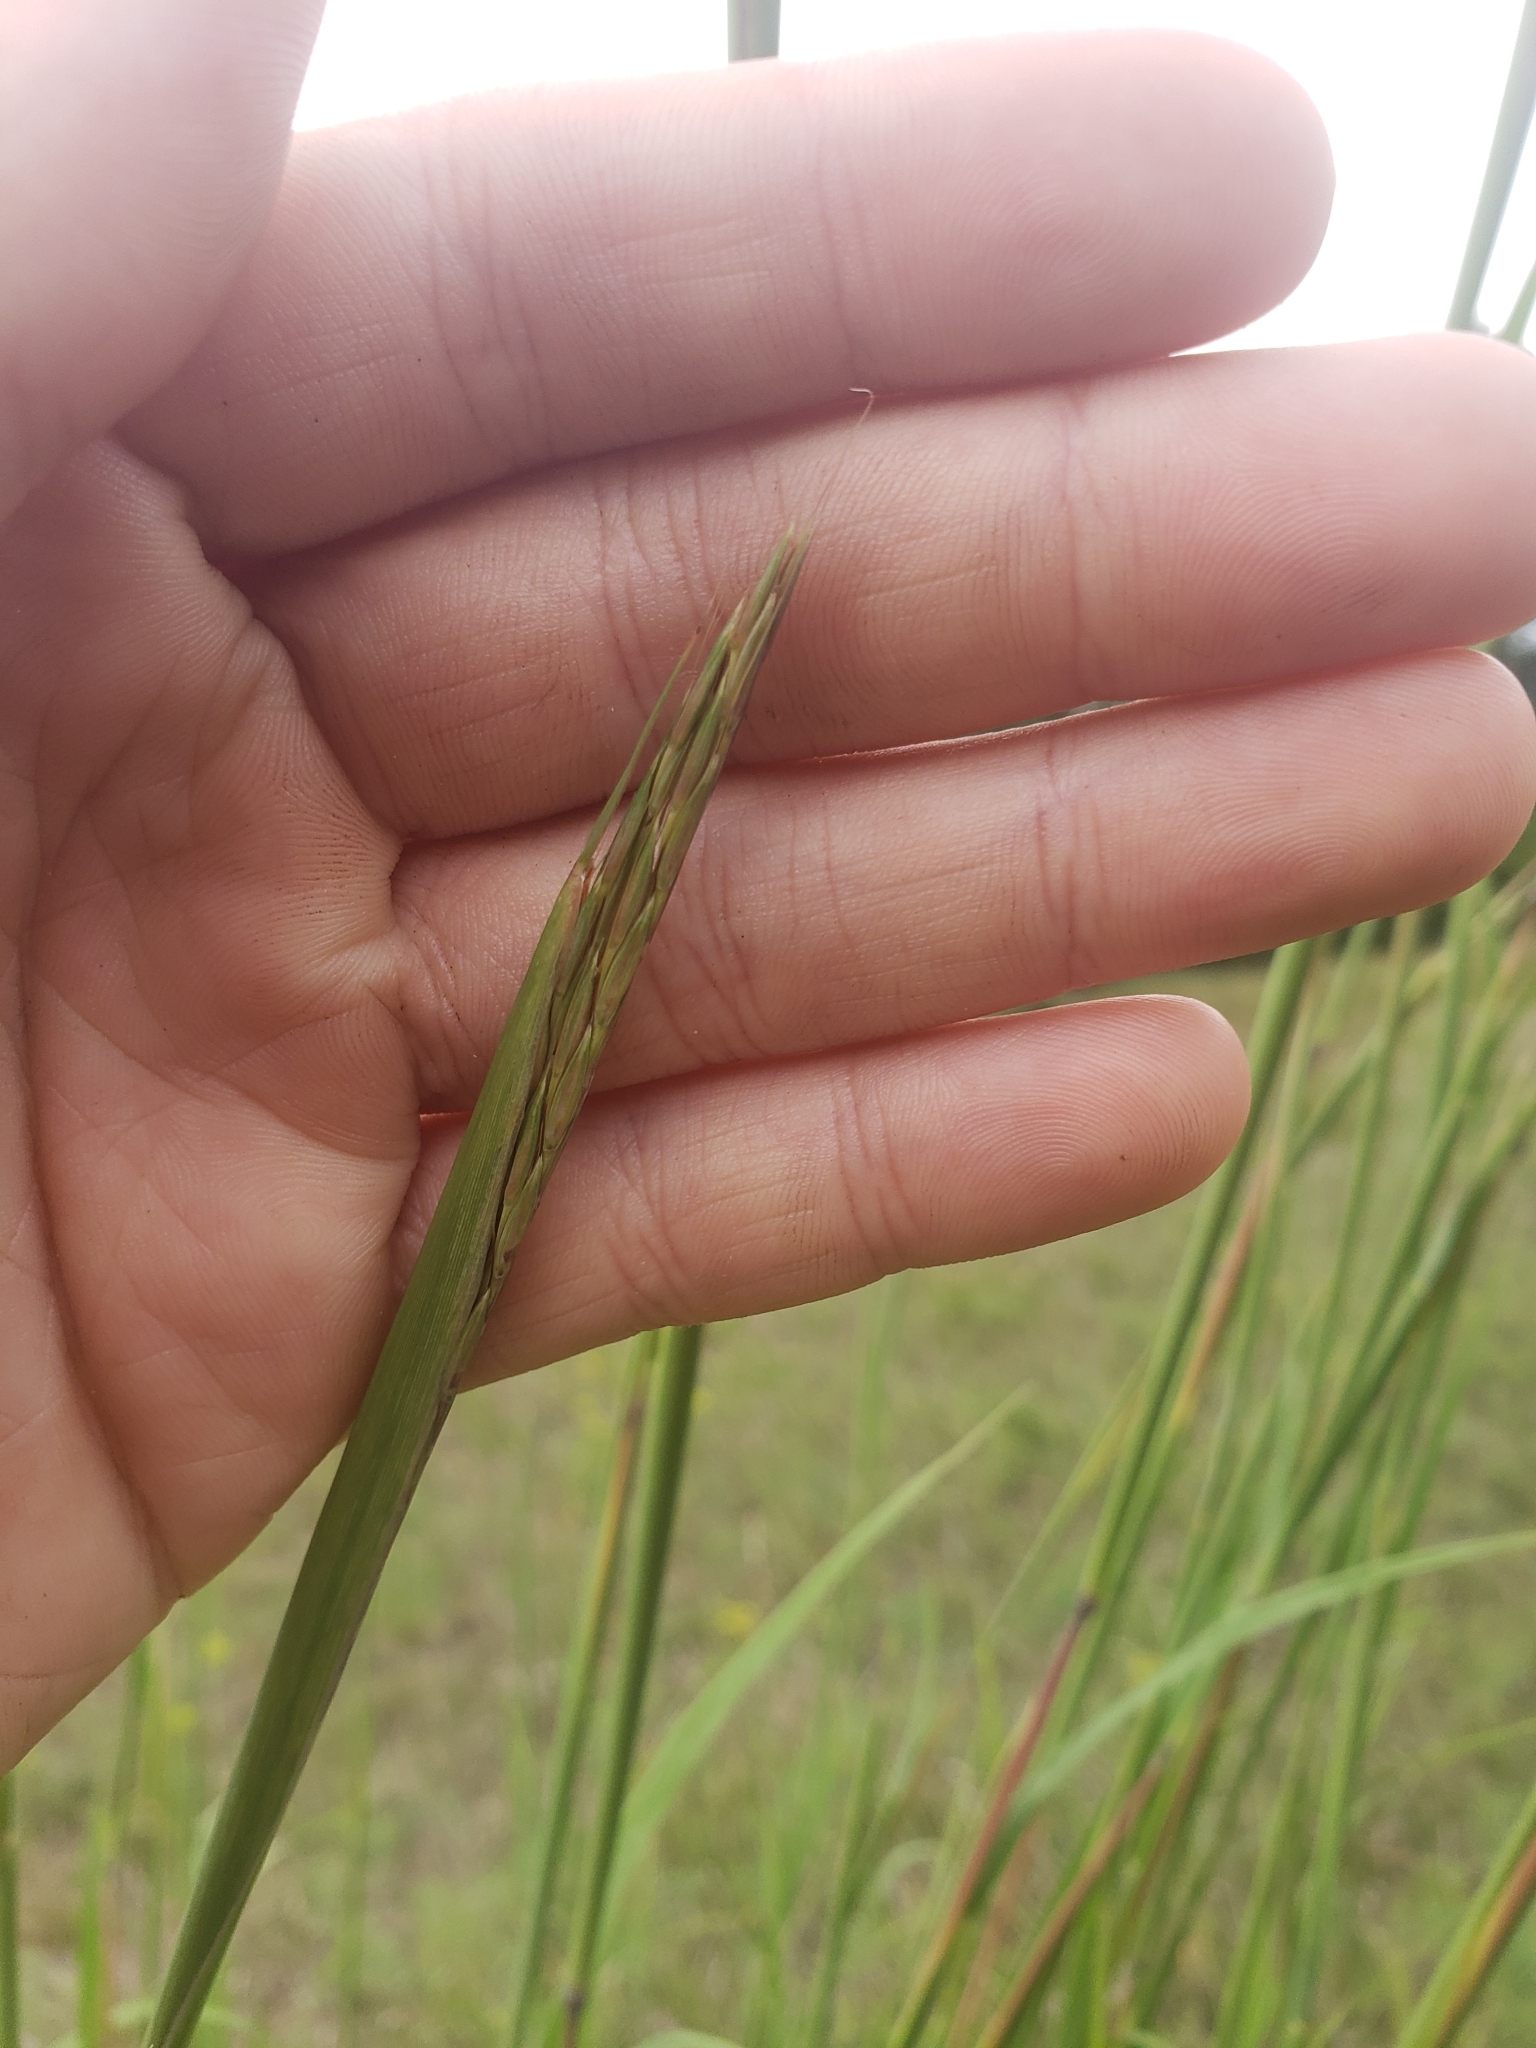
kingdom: Plantae
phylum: Tracheophyta
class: Liliopsida
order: Poales
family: Poaceae
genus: Andropogon
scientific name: Andropogon gerardi
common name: Big bluestem
